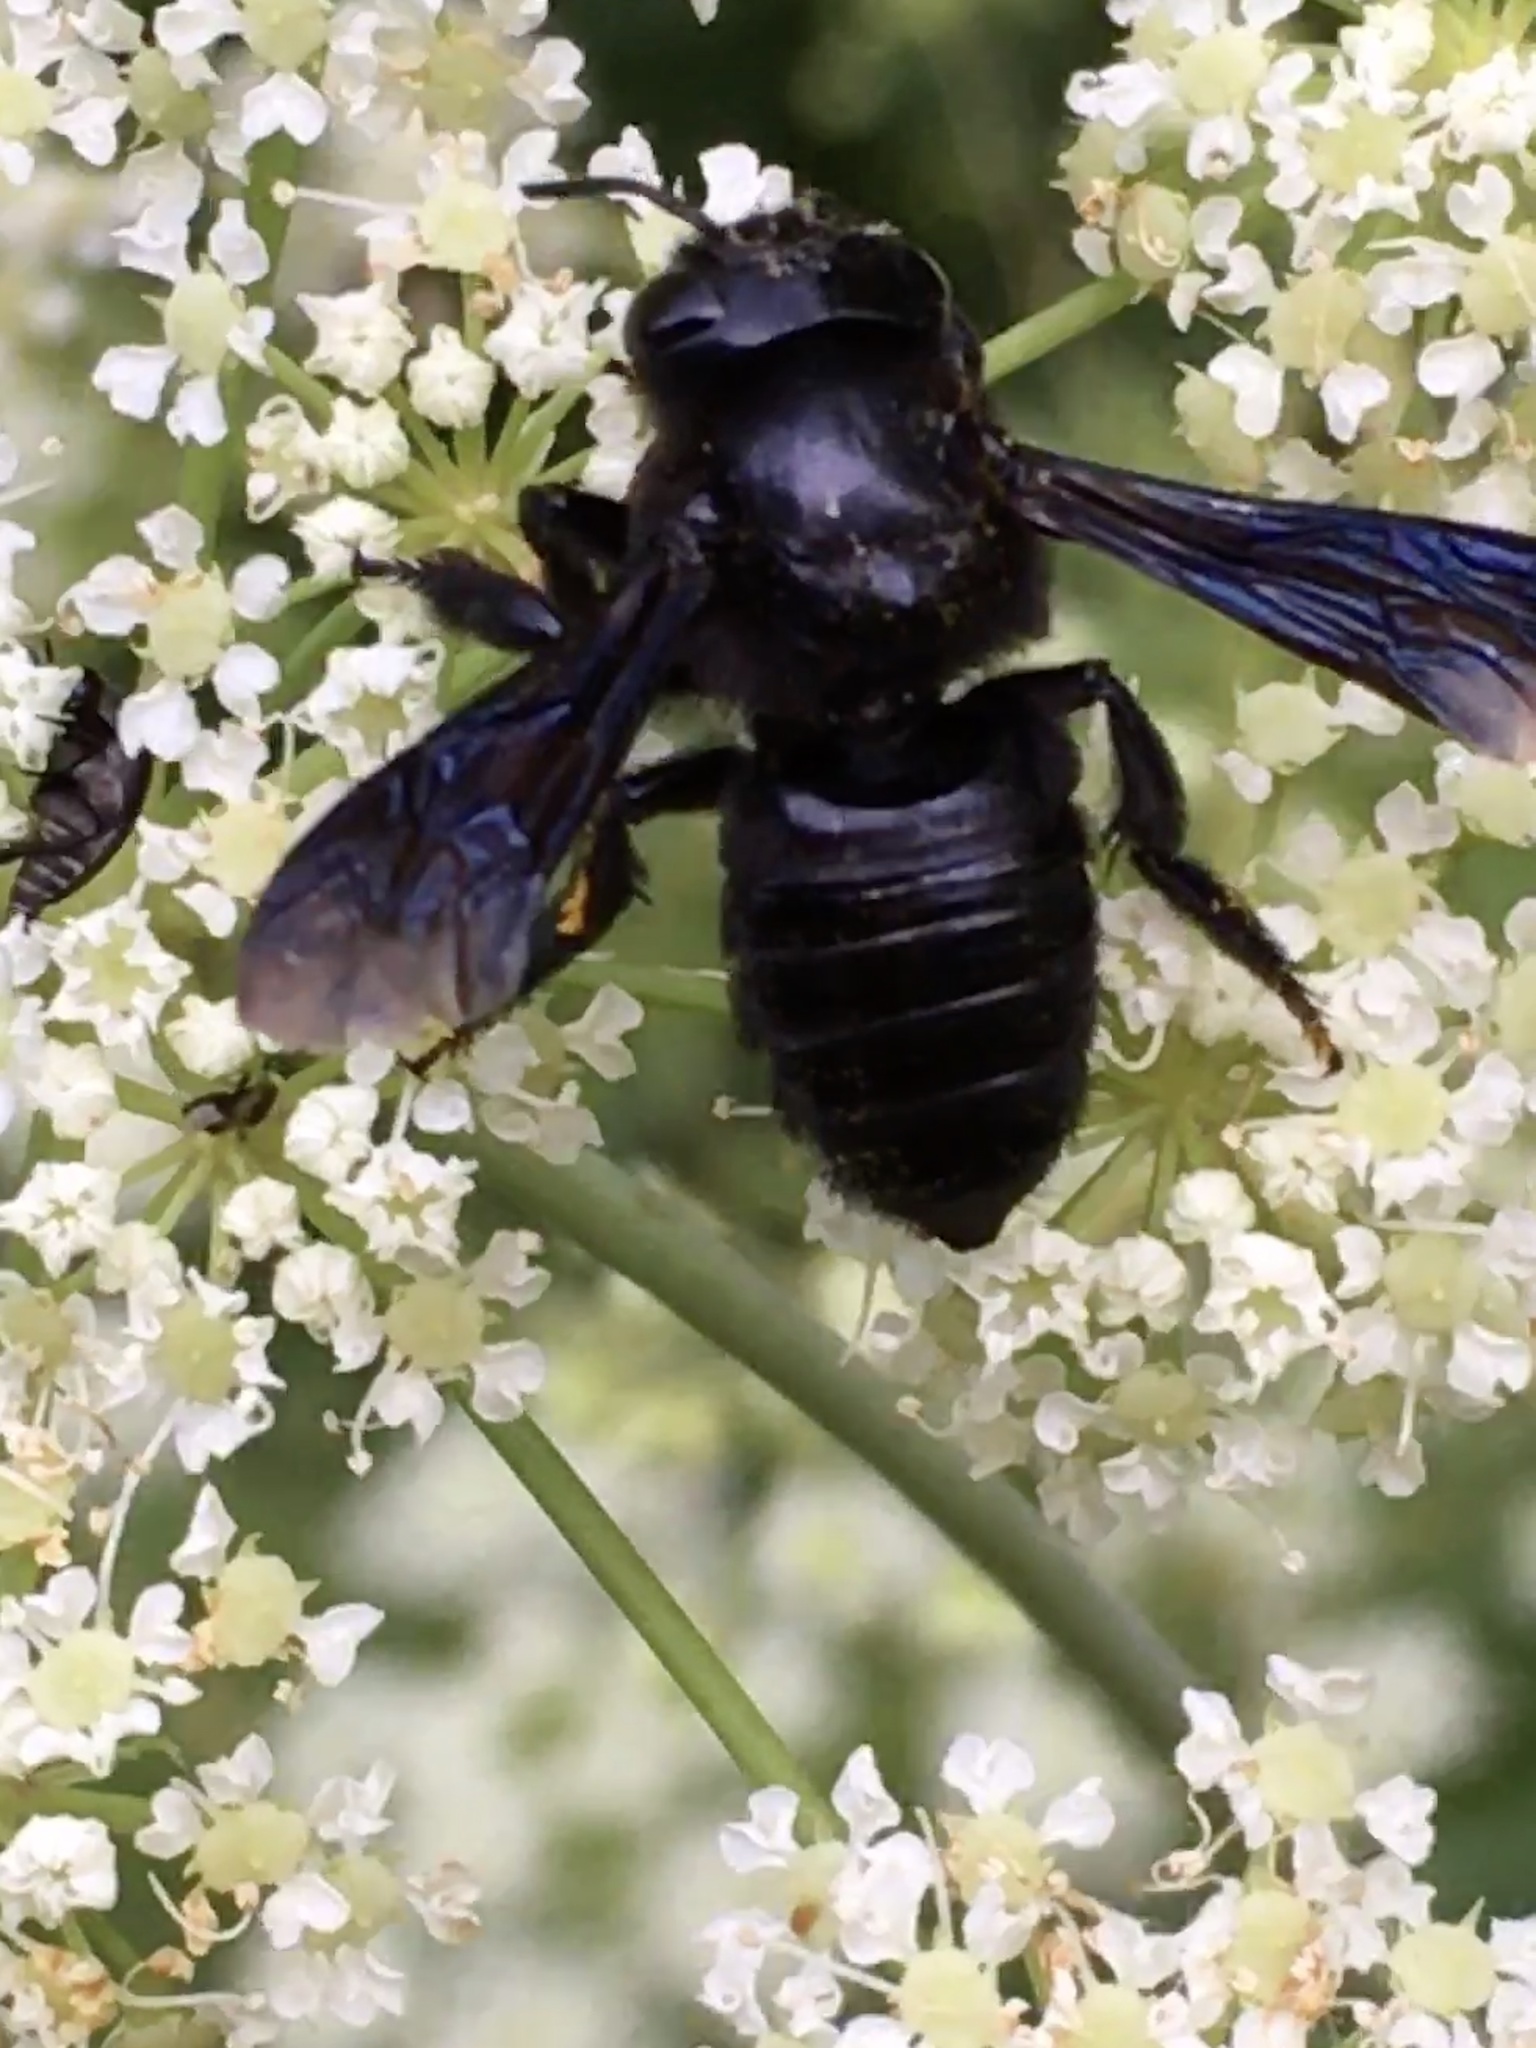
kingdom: Animalia
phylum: Arthropoda
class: Insecta
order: Hymenoptera
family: Megachilidae
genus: Megachile
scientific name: Megachile xylocopoides
